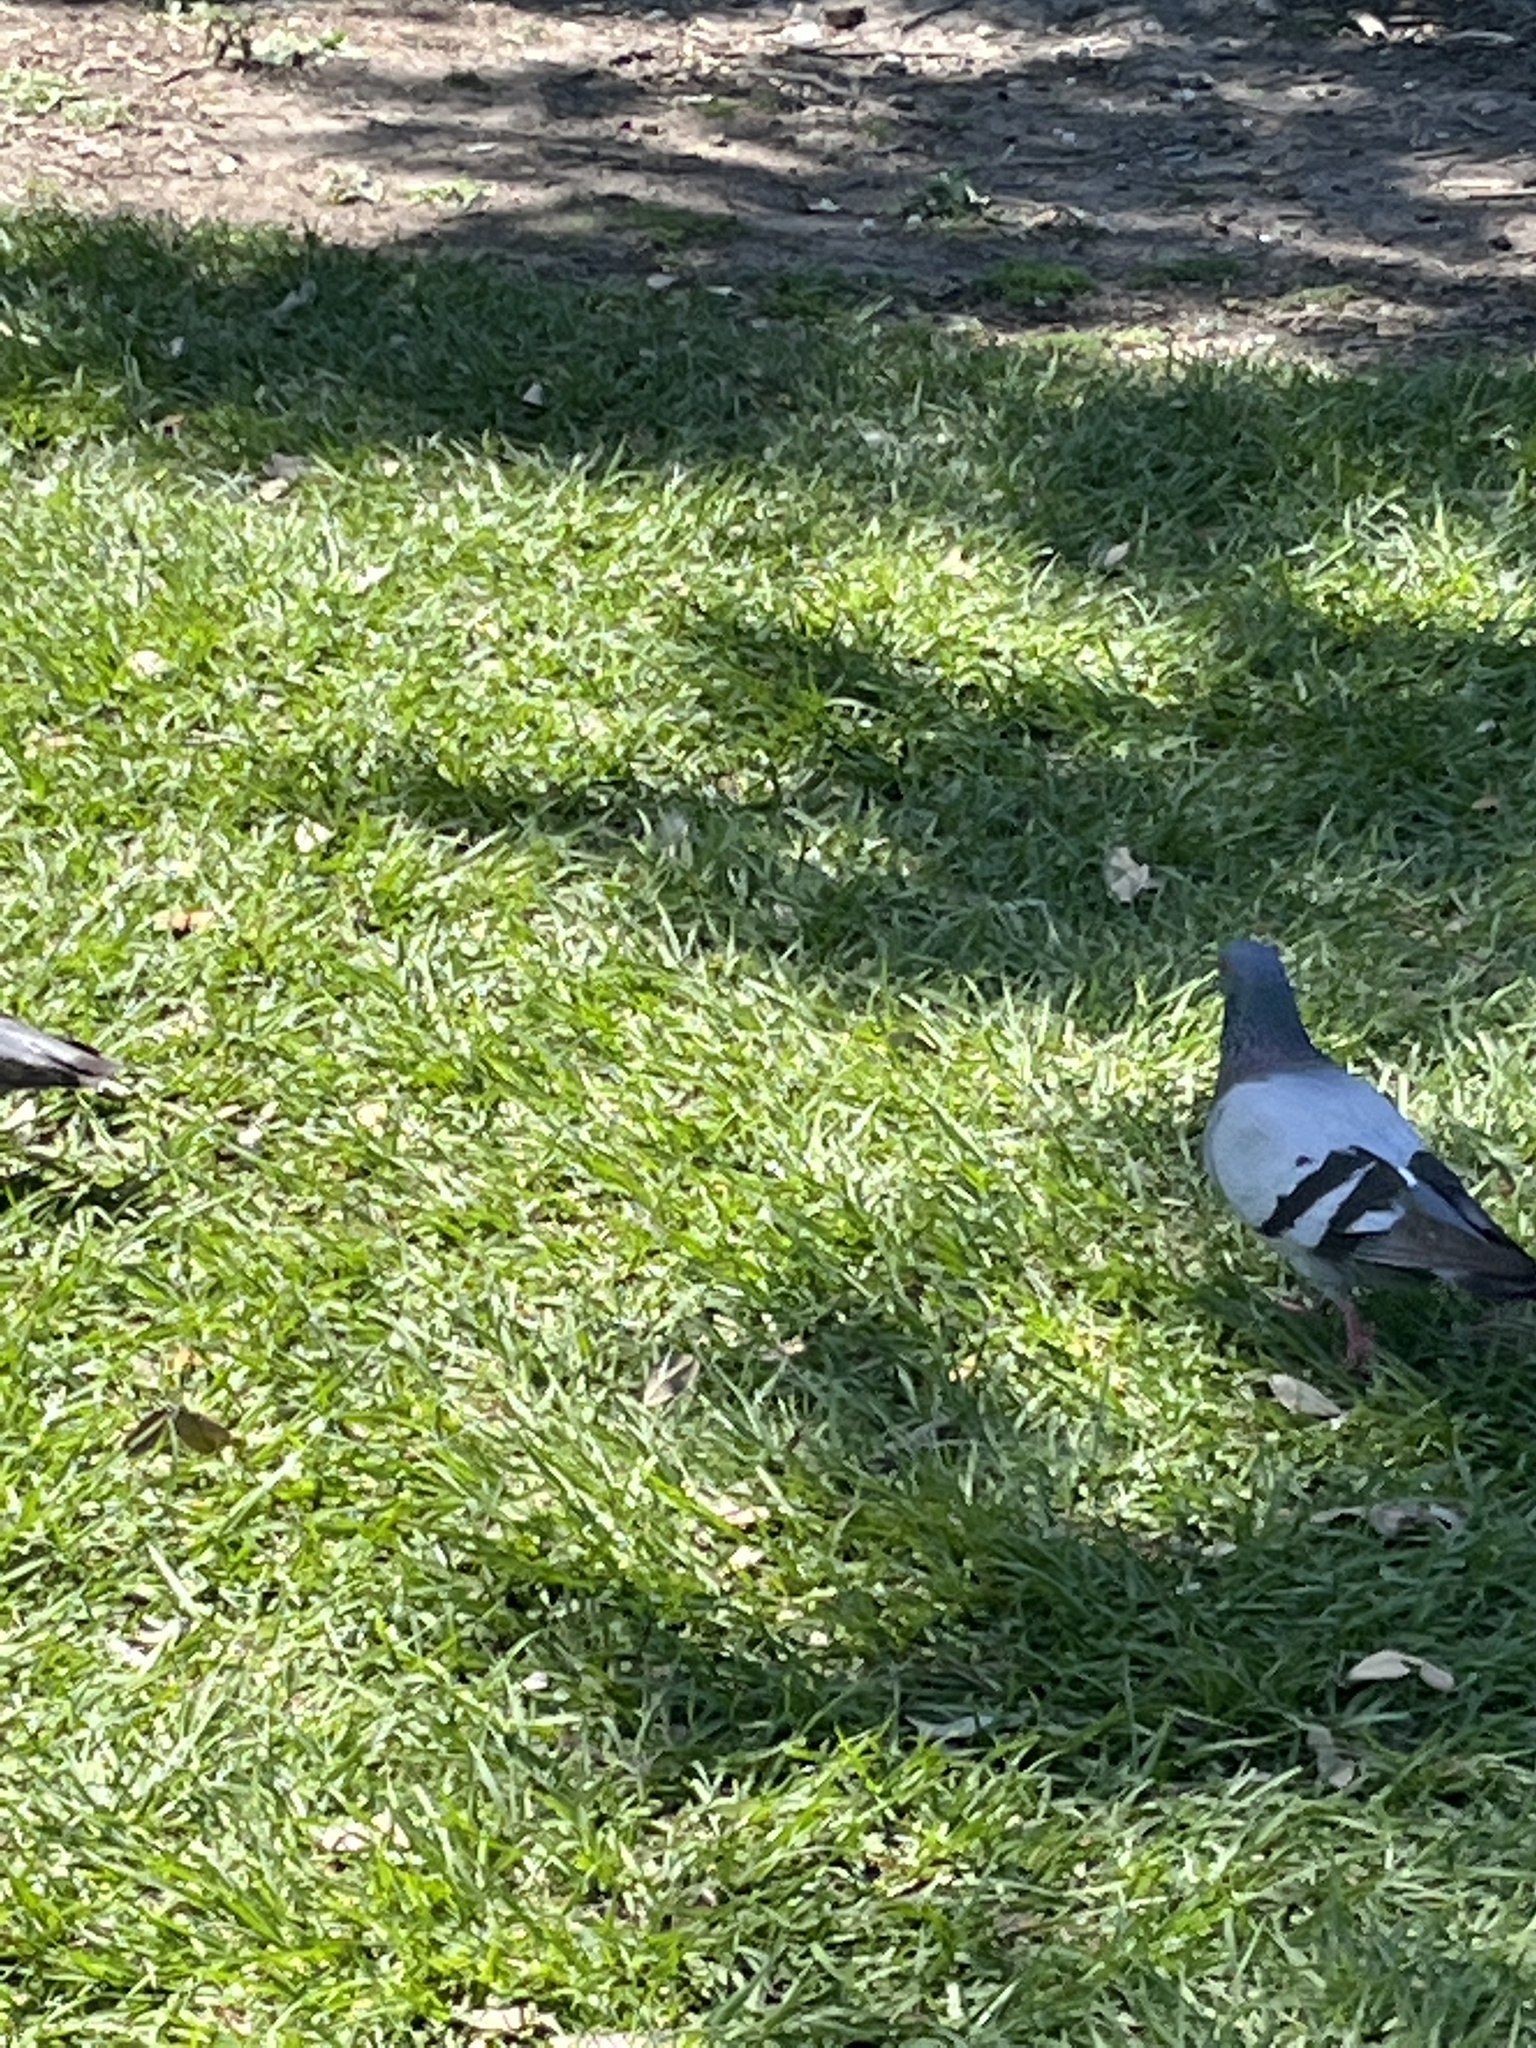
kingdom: Animalia
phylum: Chordata
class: Aves
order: Columbiformes
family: Columbidae
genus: Columba
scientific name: Columba livia
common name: Rock pigeon
